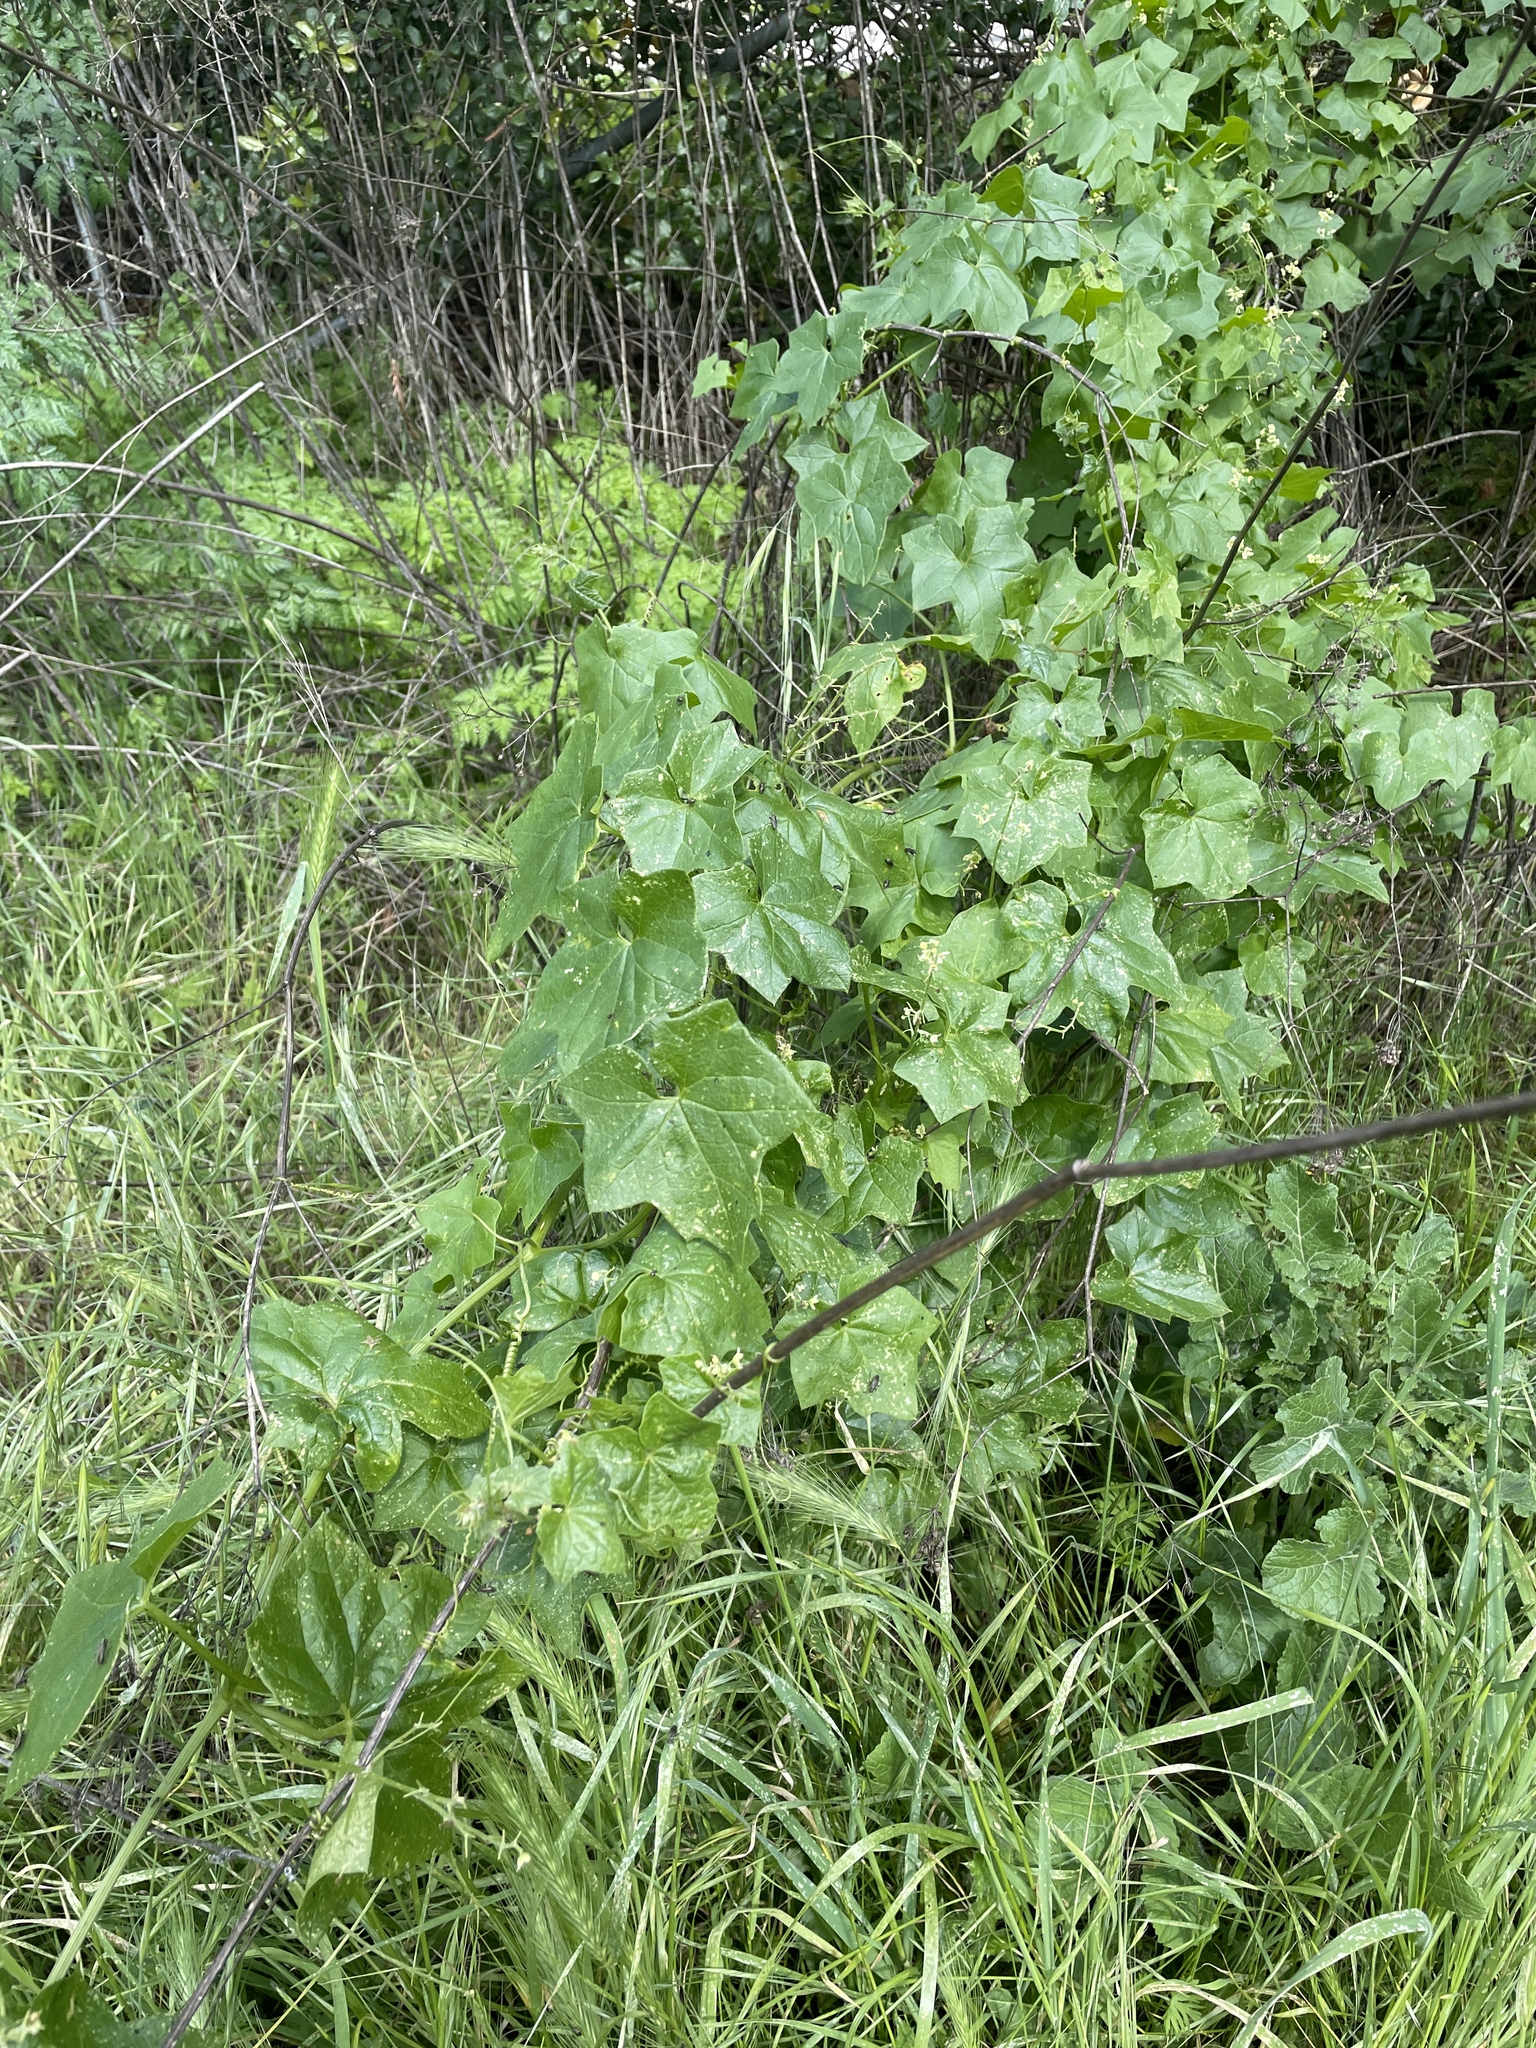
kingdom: Plantae
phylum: Tracheophyta
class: Magnoliopsida
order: Cucurbitales
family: Cucurbitaceae
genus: Marah
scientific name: Marah fabacea
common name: California manroot
